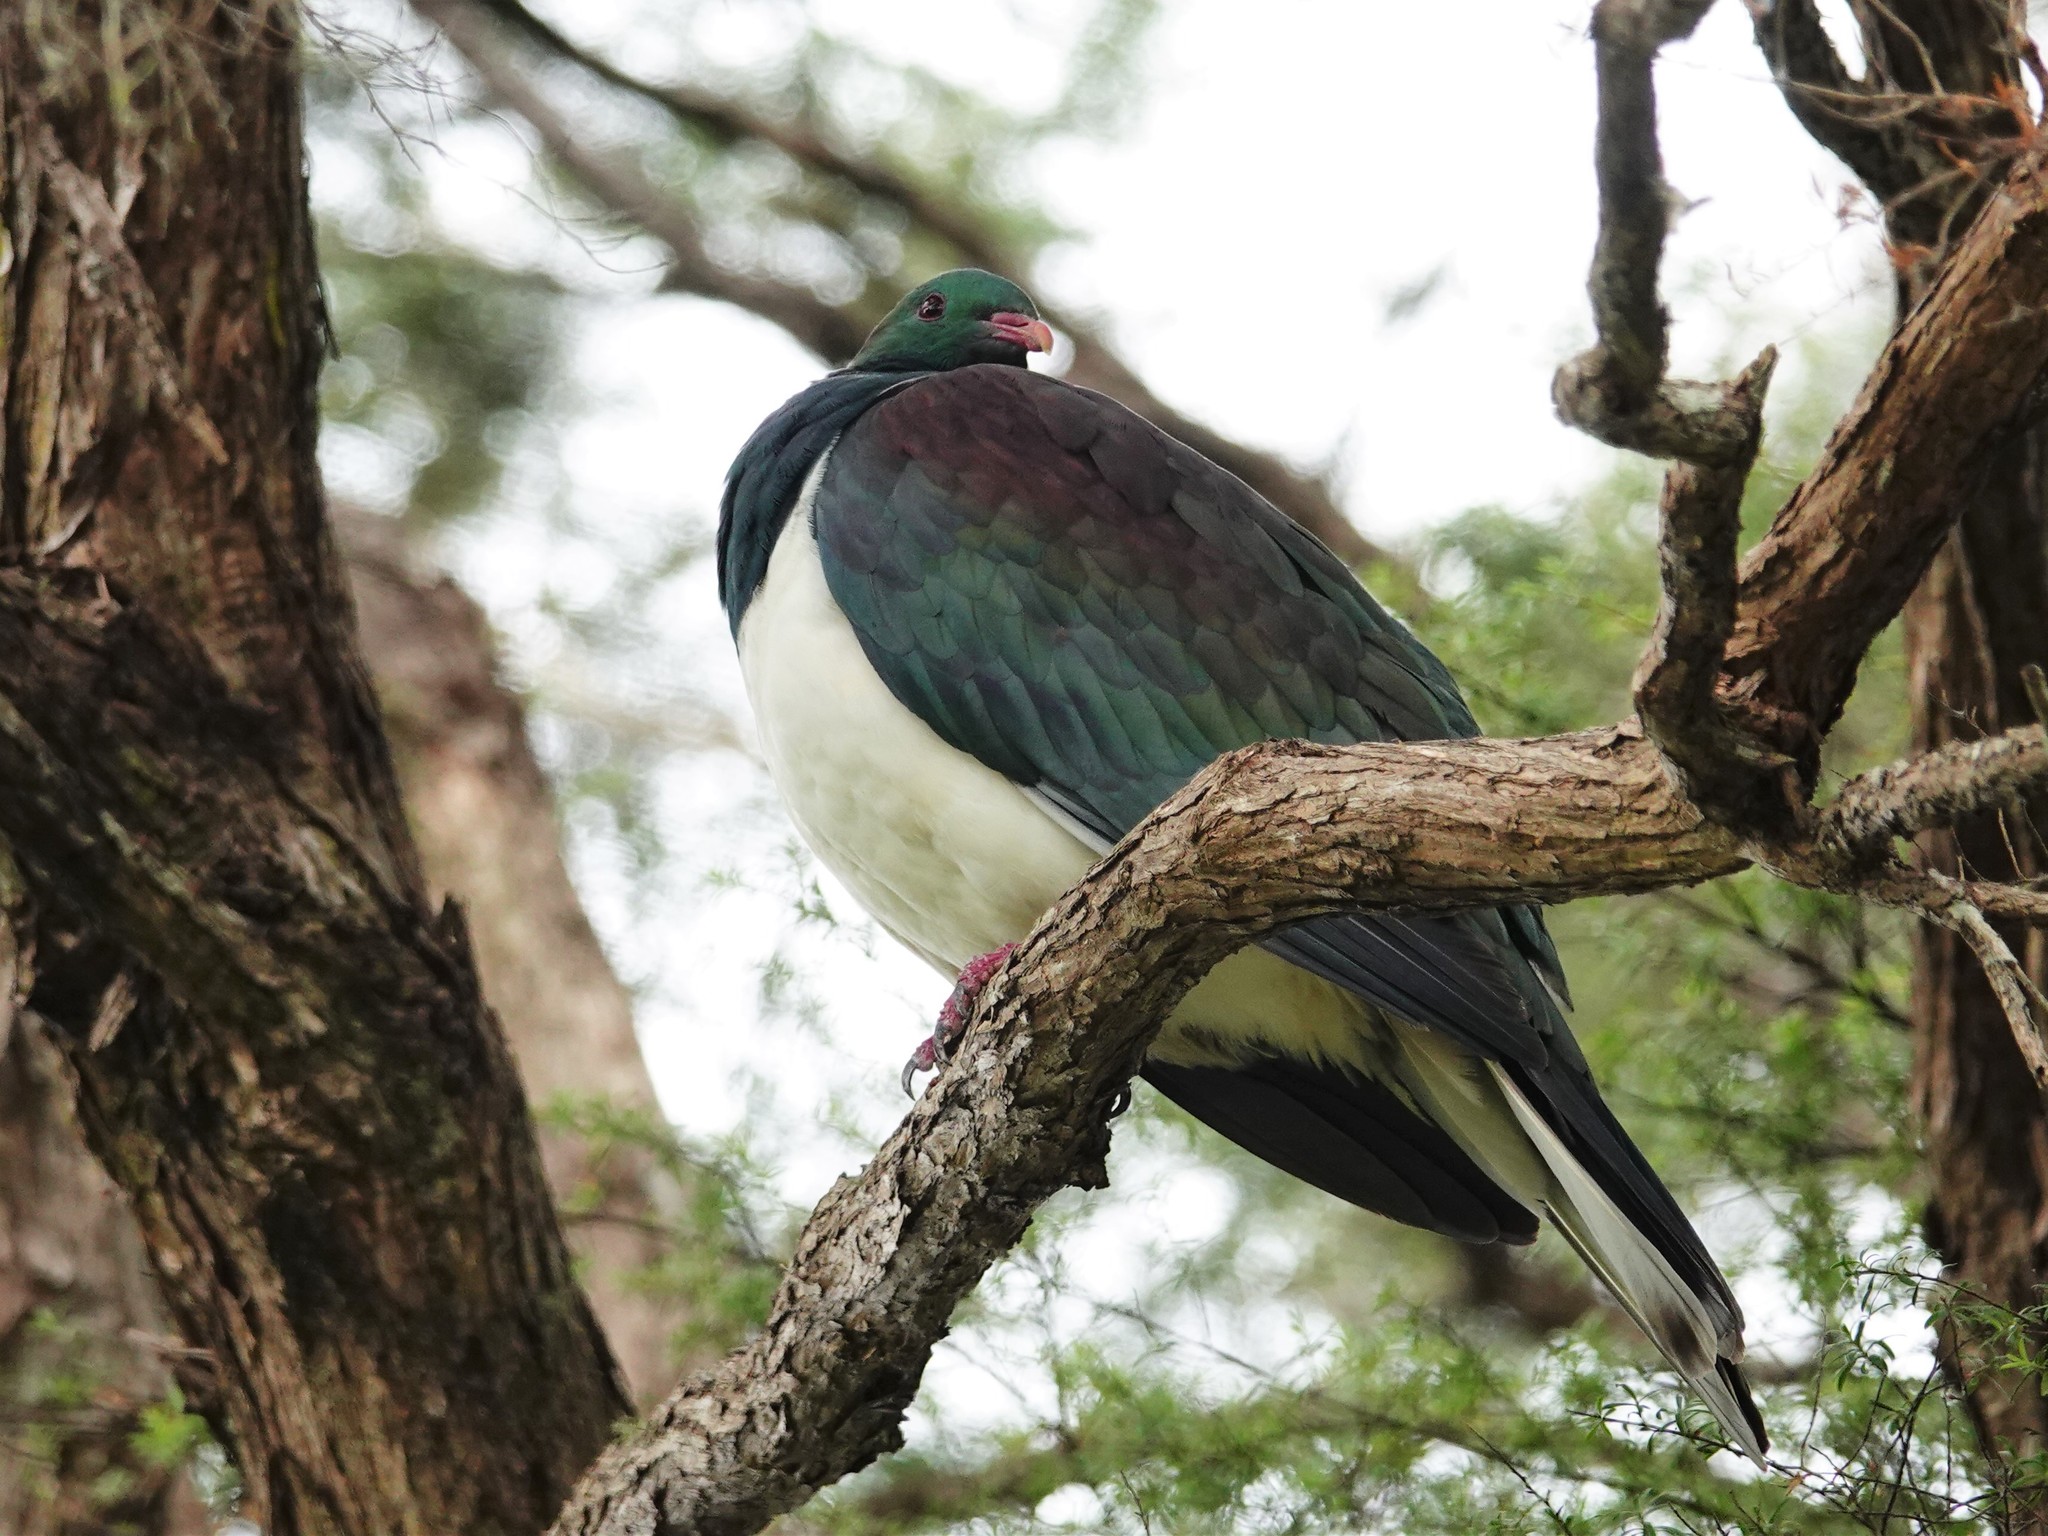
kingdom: Animalia
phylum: Chordata
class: Aves
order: Columbiformes
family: Columbidae
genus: Hemiphaga
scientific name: Hemiphaga novaeseelandiae
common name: New zealand pigeon
